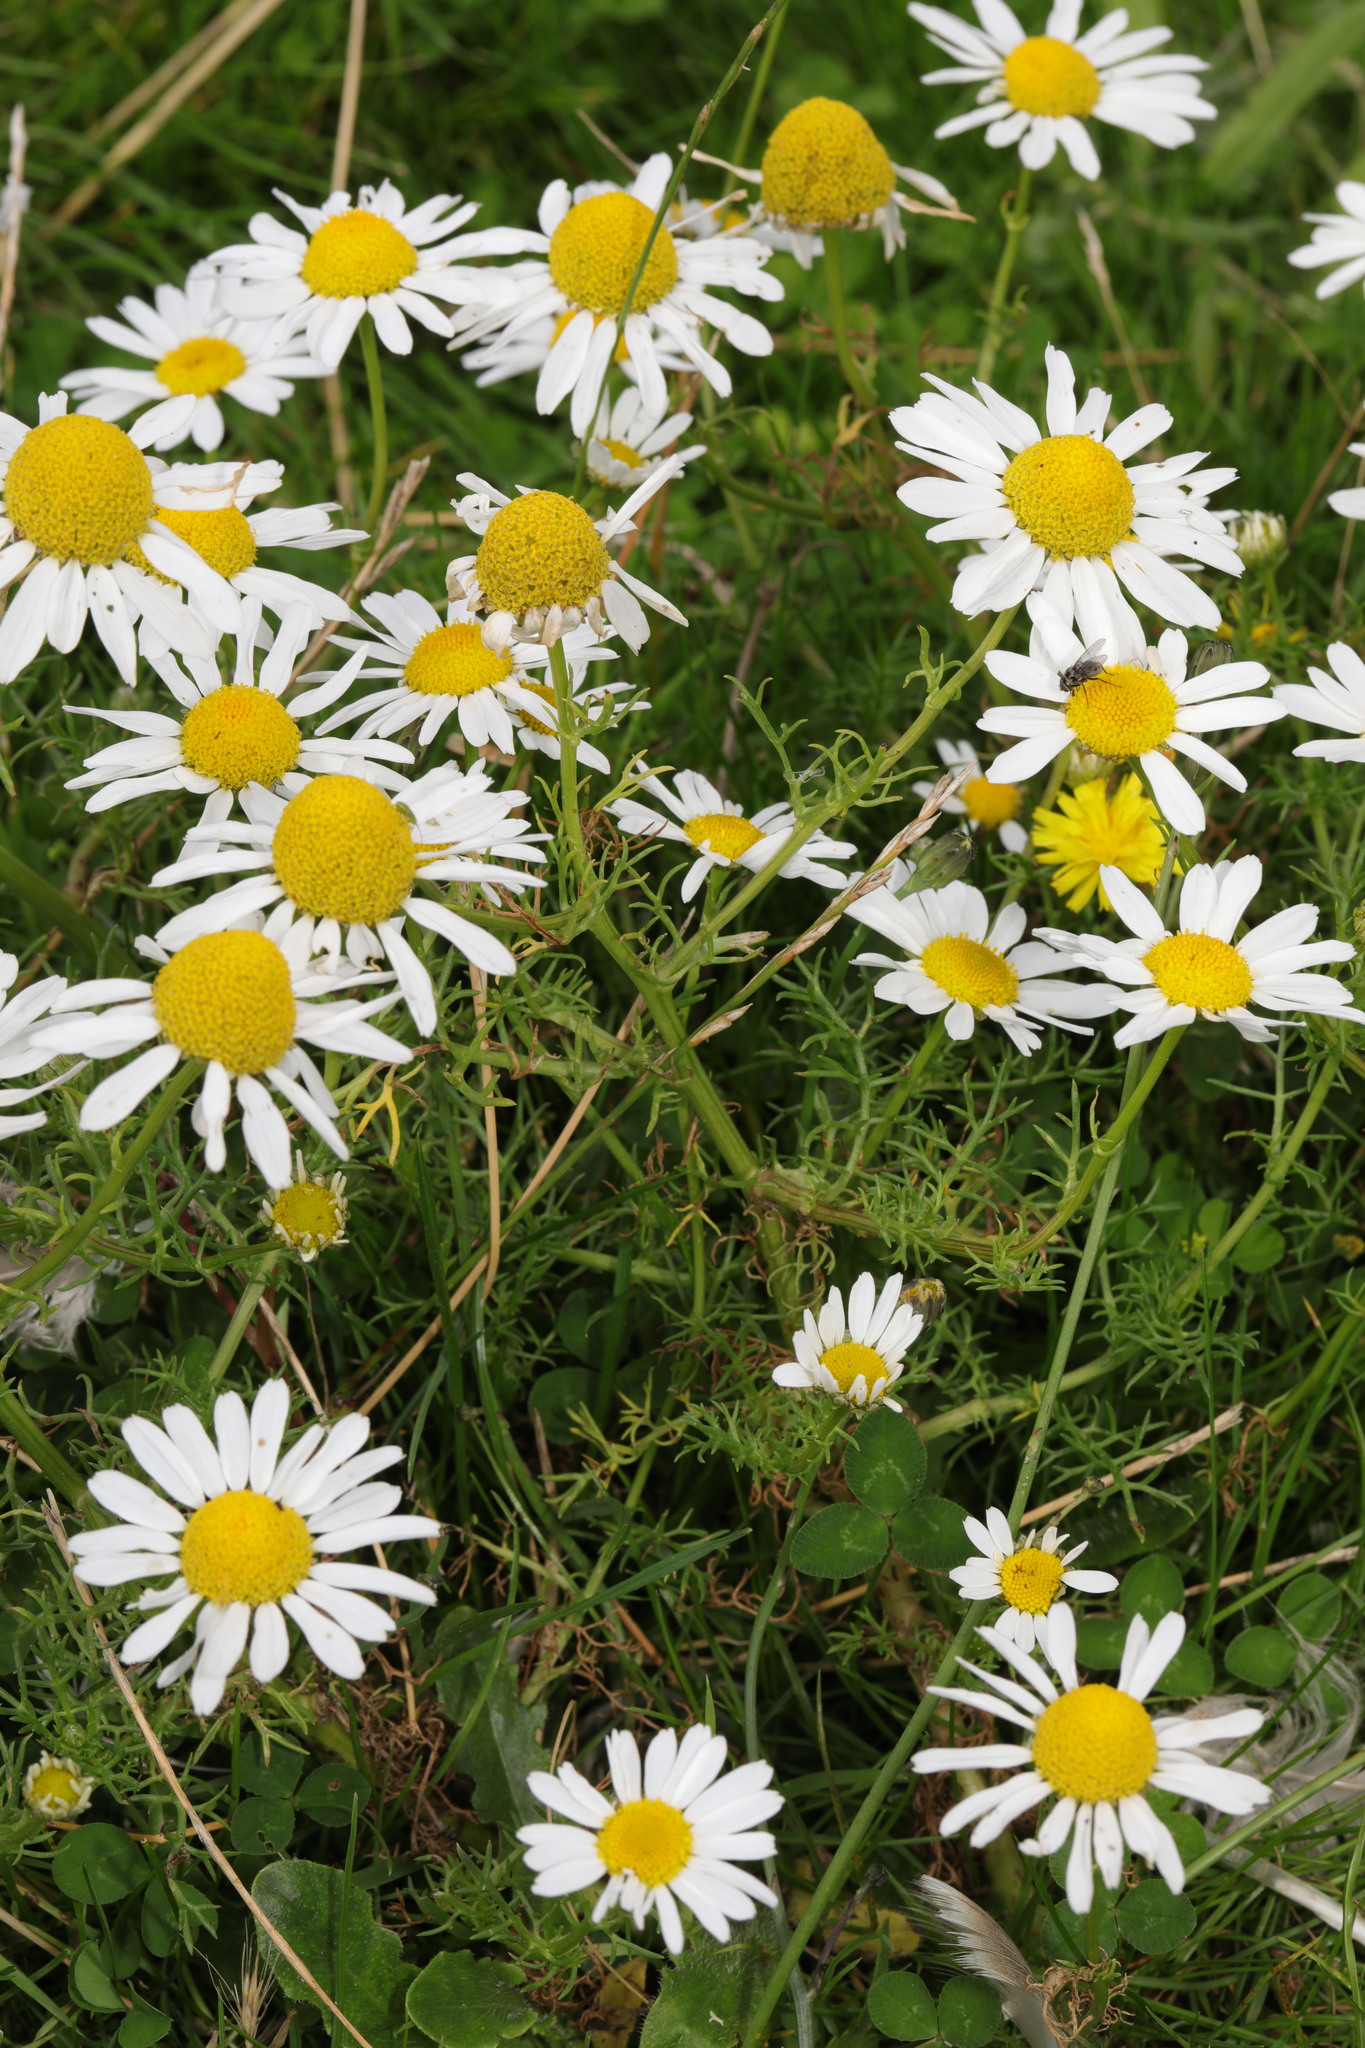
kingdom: Plantae
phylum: Tracheophyta
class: Magnoliopsida
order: Asterales
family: Asteraceae
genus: Tripleurospermum
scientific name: Tripleurospermum inodorum
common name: Scentless mayweed
